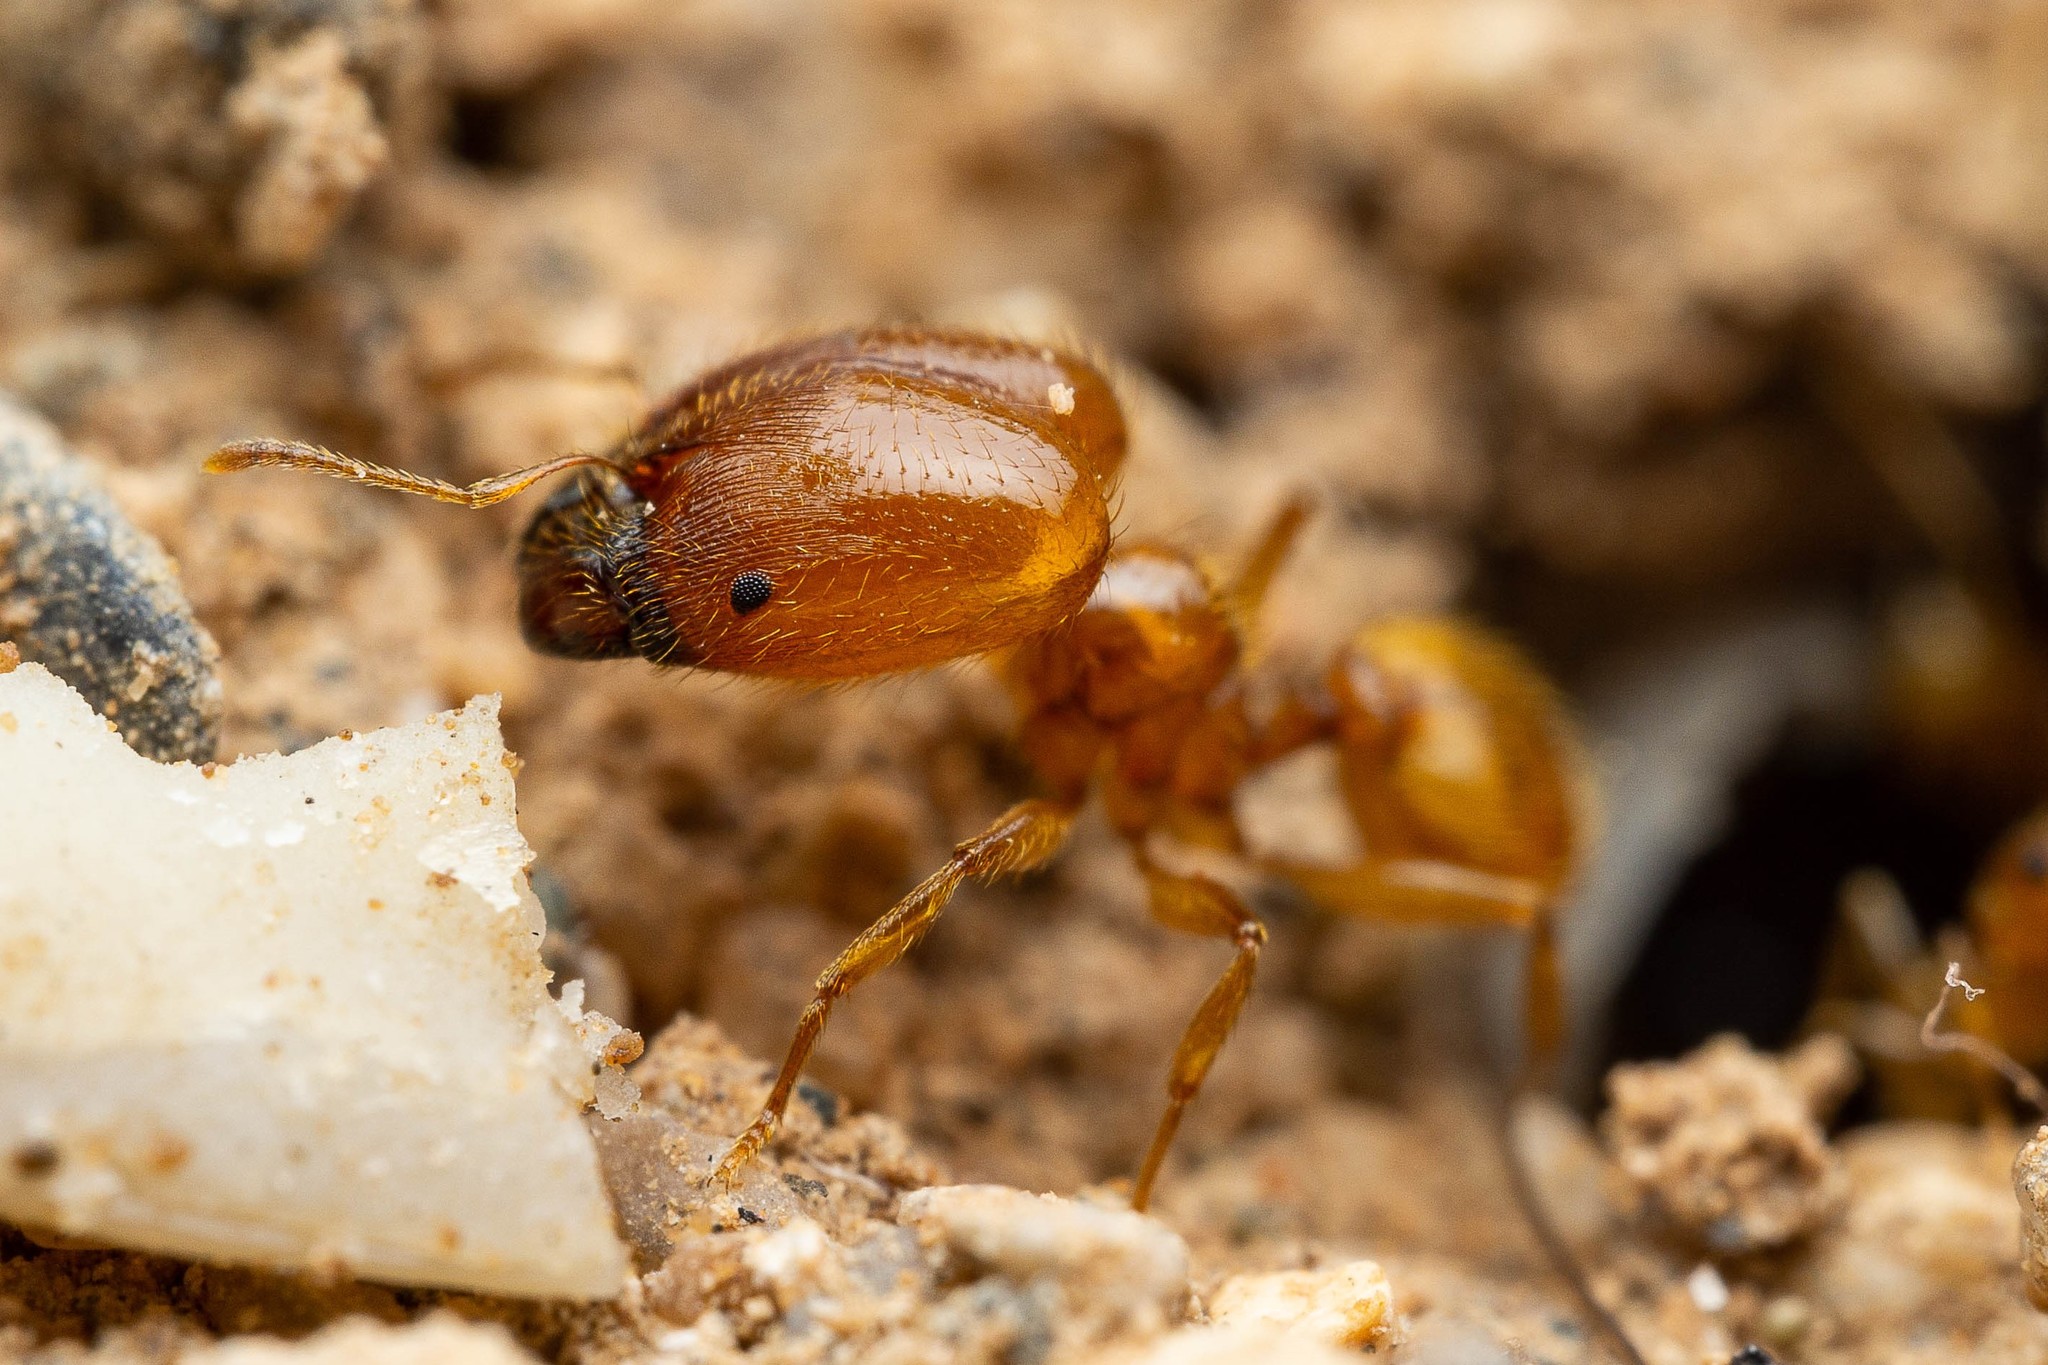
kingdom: Animalia
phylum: Arthropoda
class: Insecta
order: Hymenoptera
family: Formicidae
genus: Pheidole
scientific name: Pheidole spadonia
